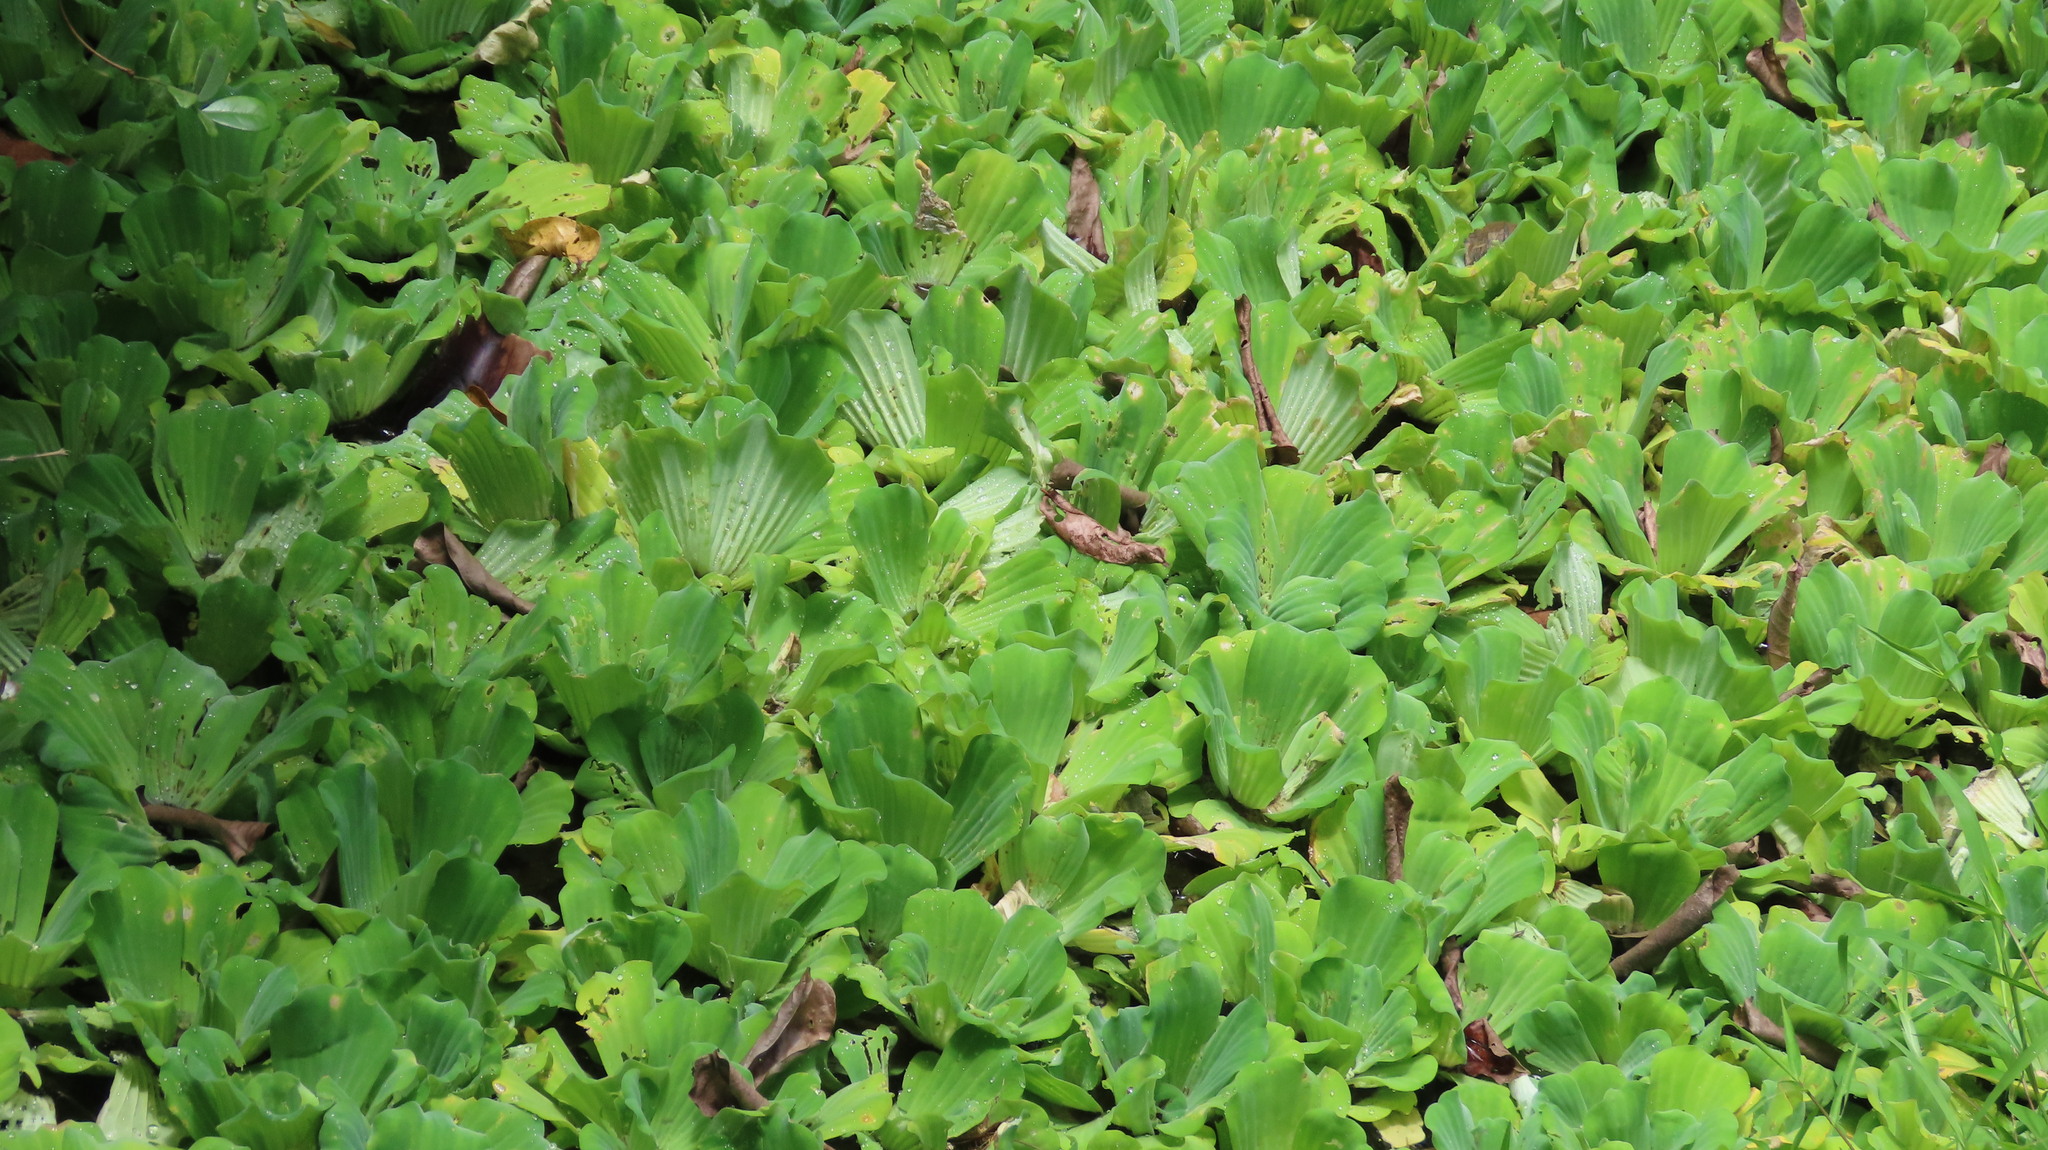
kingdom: Plantae
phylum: Tracheophyta
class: Liliopsida
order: Alismatales
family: Araceae
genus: Pistia
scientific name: Pistia stratiotes
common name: Water lettuce
